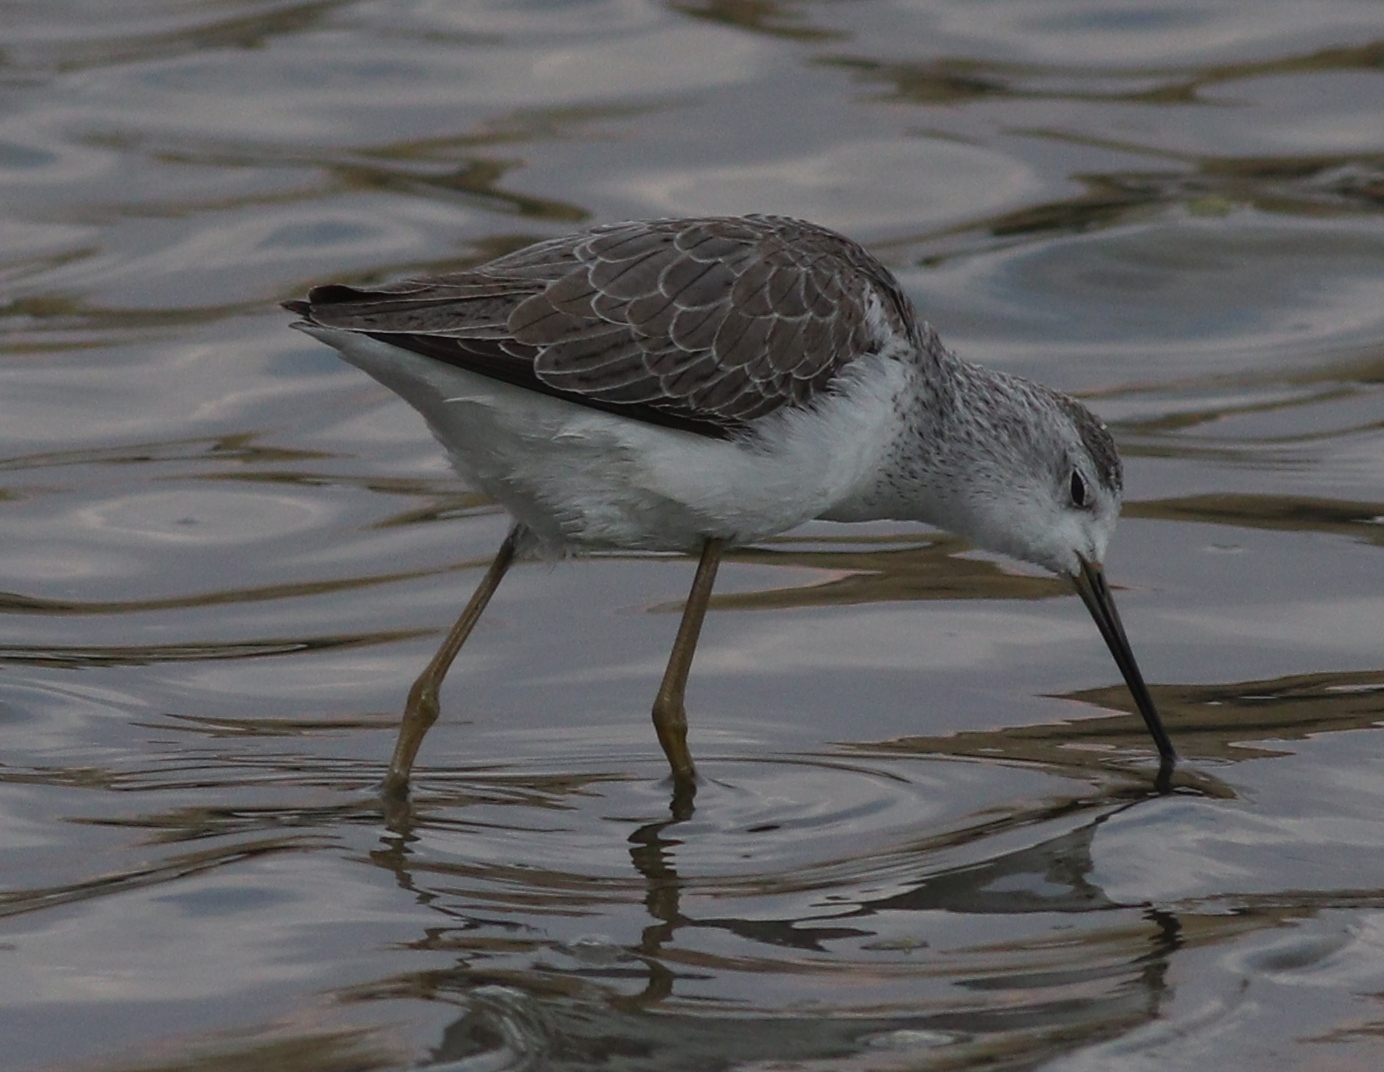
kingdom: Animalia
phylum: Chordata
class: Aves
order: Charadriiformes
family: Scolopacidae
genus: Tringa
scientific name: Tringa stagnatilis
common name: Marsh sandpiper
